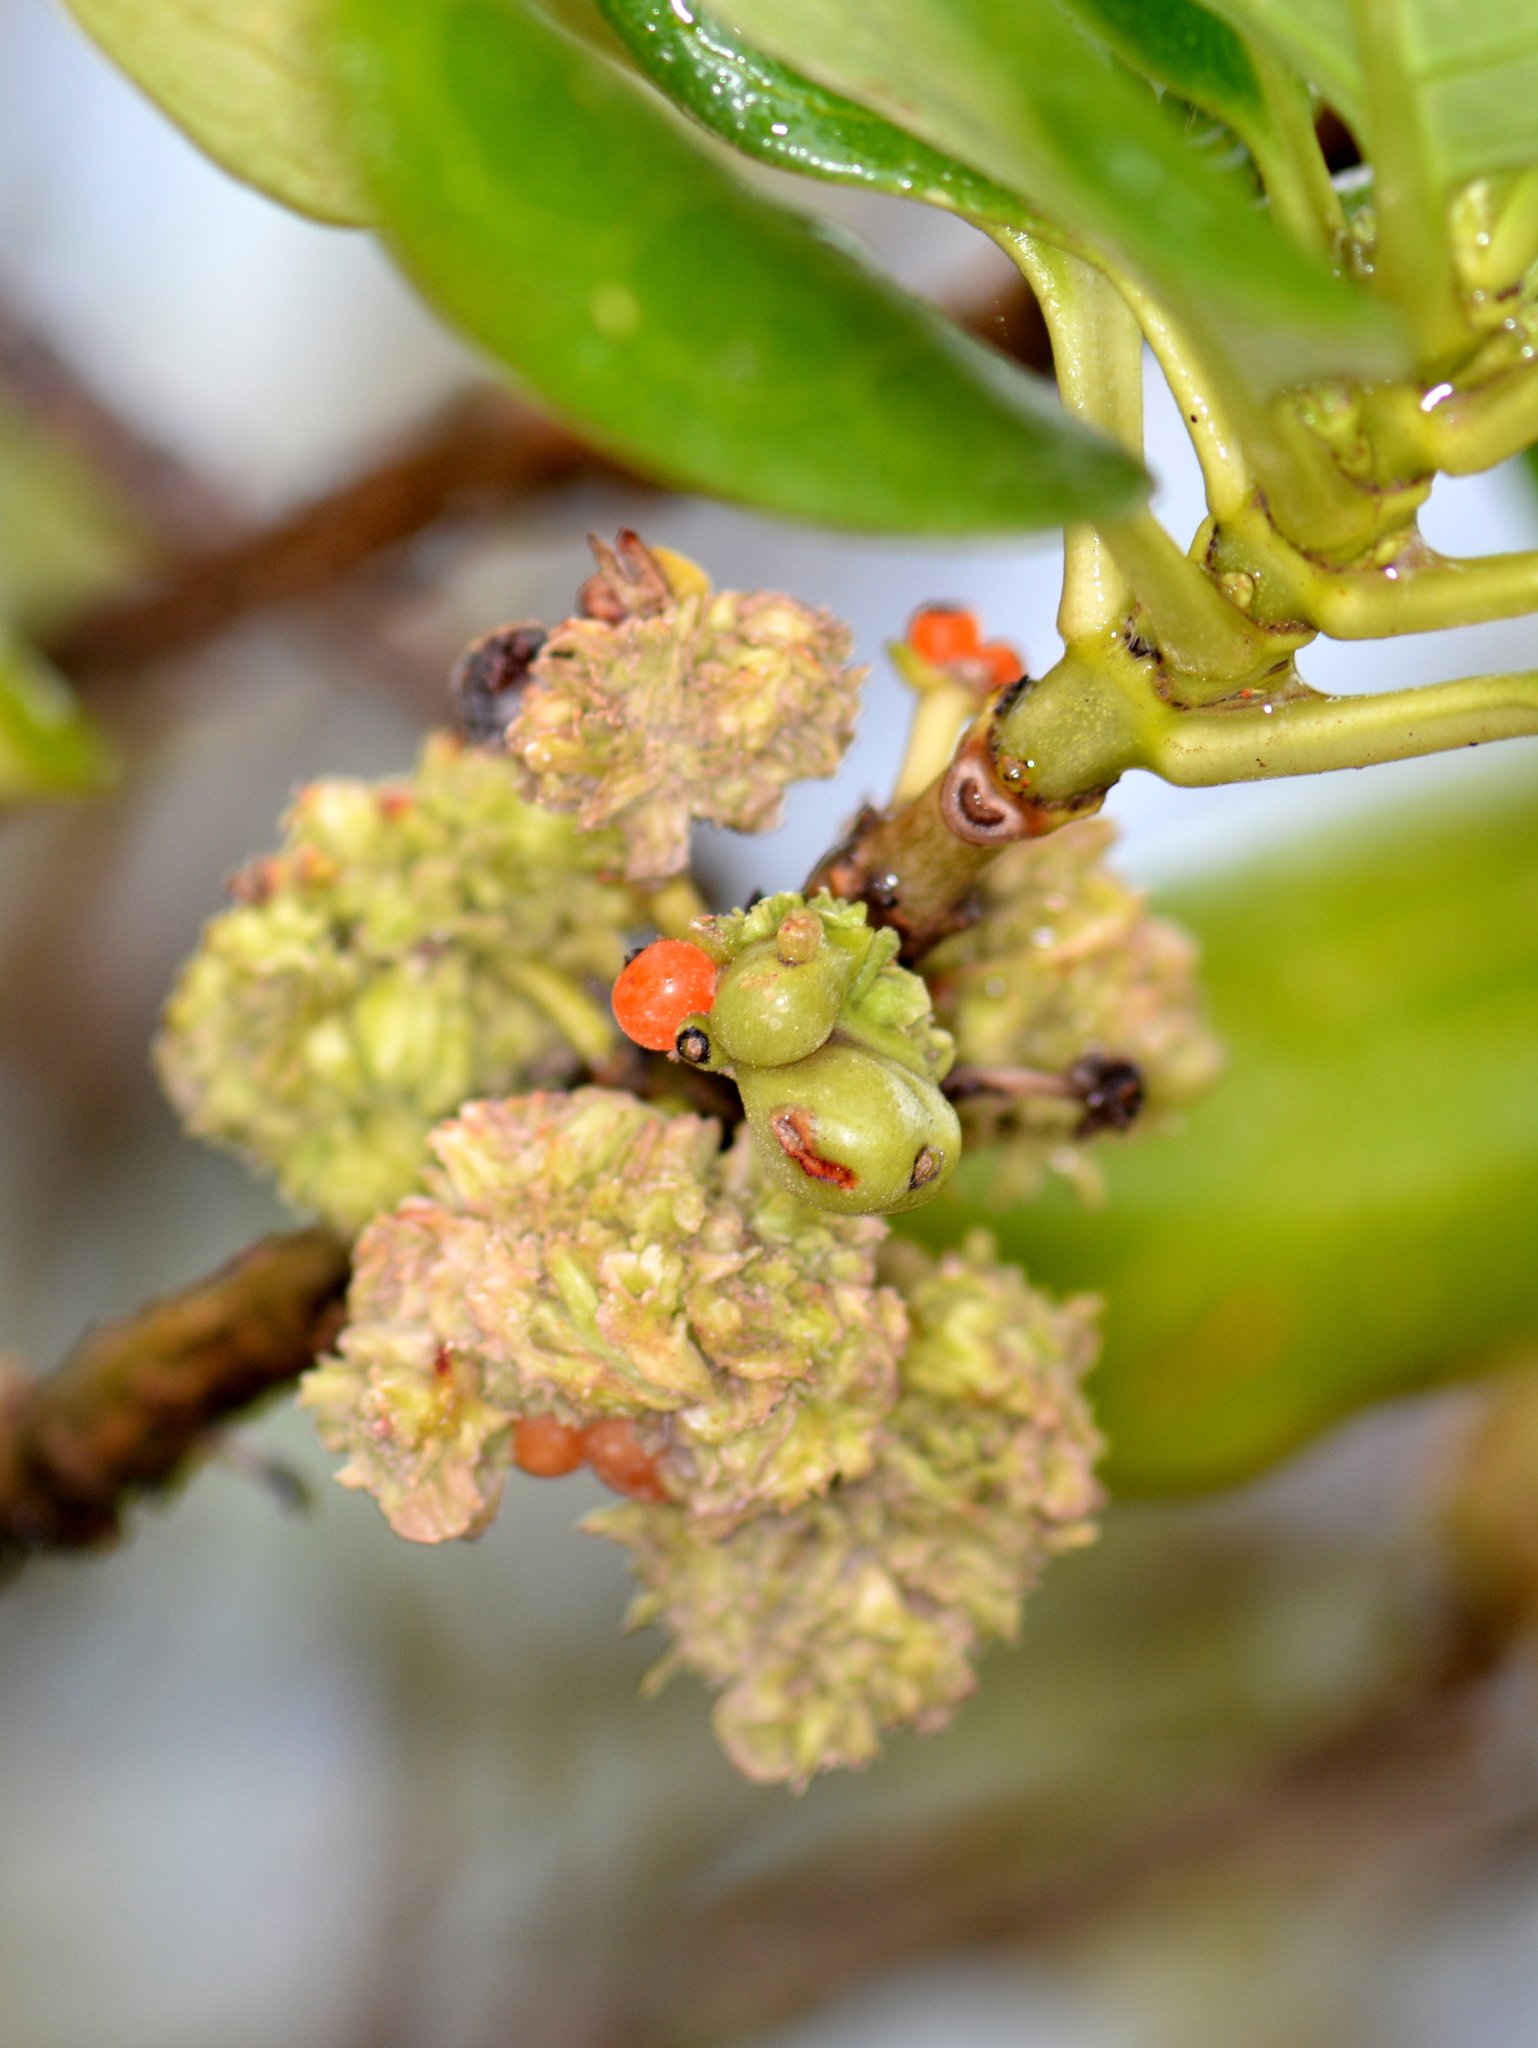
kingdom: Plantae
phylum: Tracheophyta
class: Magnoliopsida
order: Gentianales
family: Rubiaceae
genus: Coprosma
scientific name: Coprosma repens
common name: Tree bedstraw
